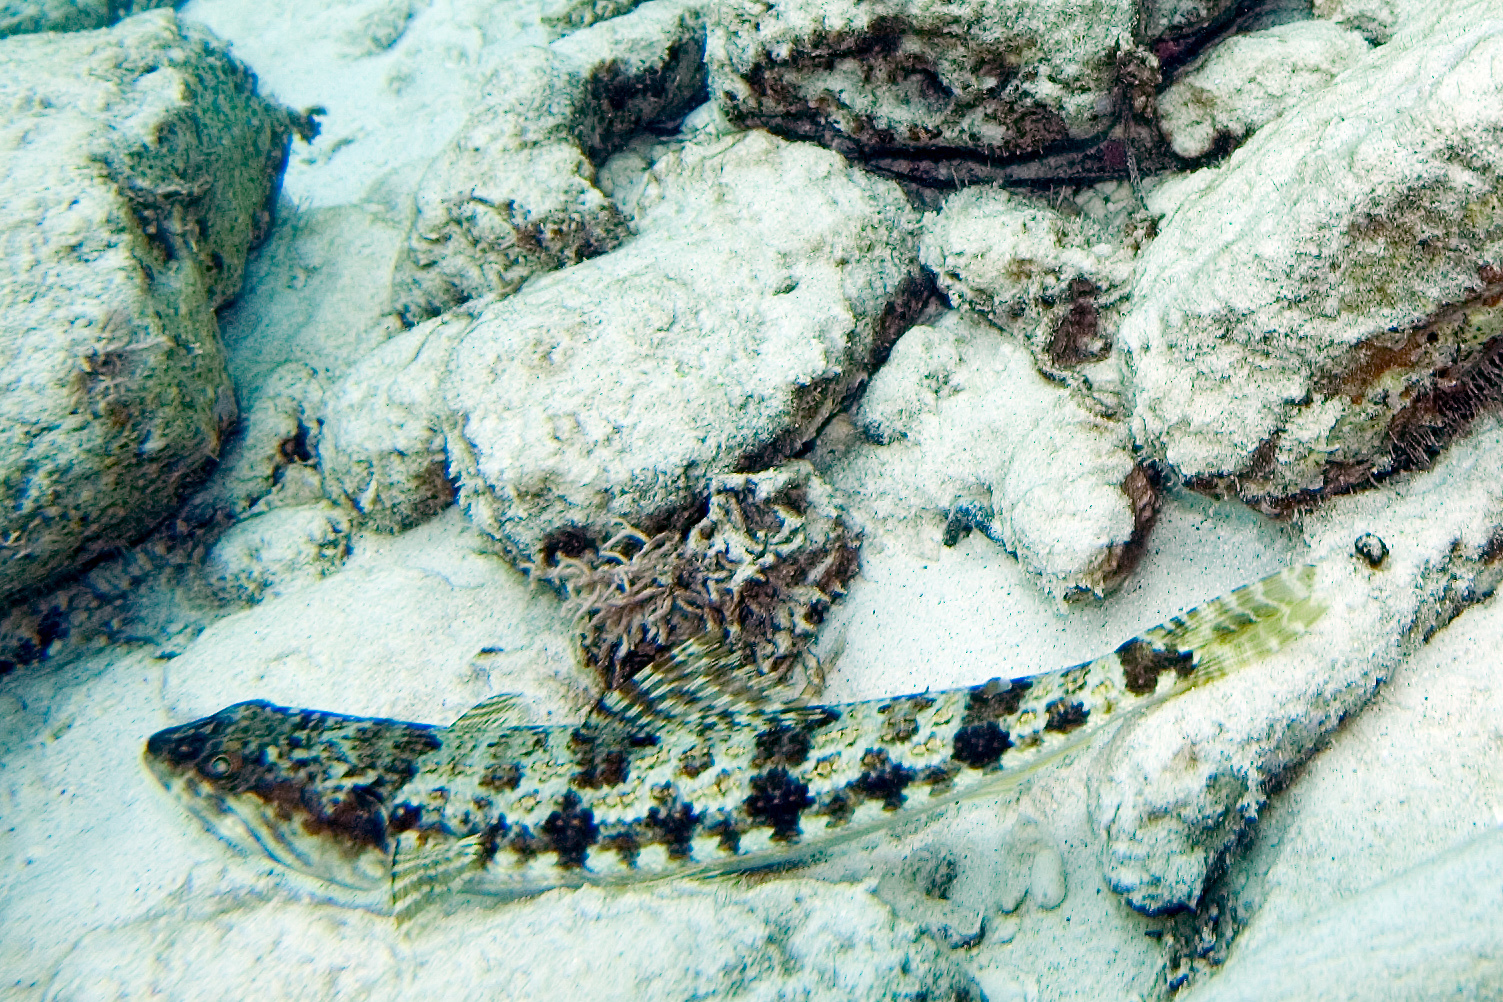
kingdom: Animalia
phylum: Chordata
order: Aulopiformes
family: Synodontidae
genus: Synodus
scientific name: Synodus intermedius
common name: Sand diver
